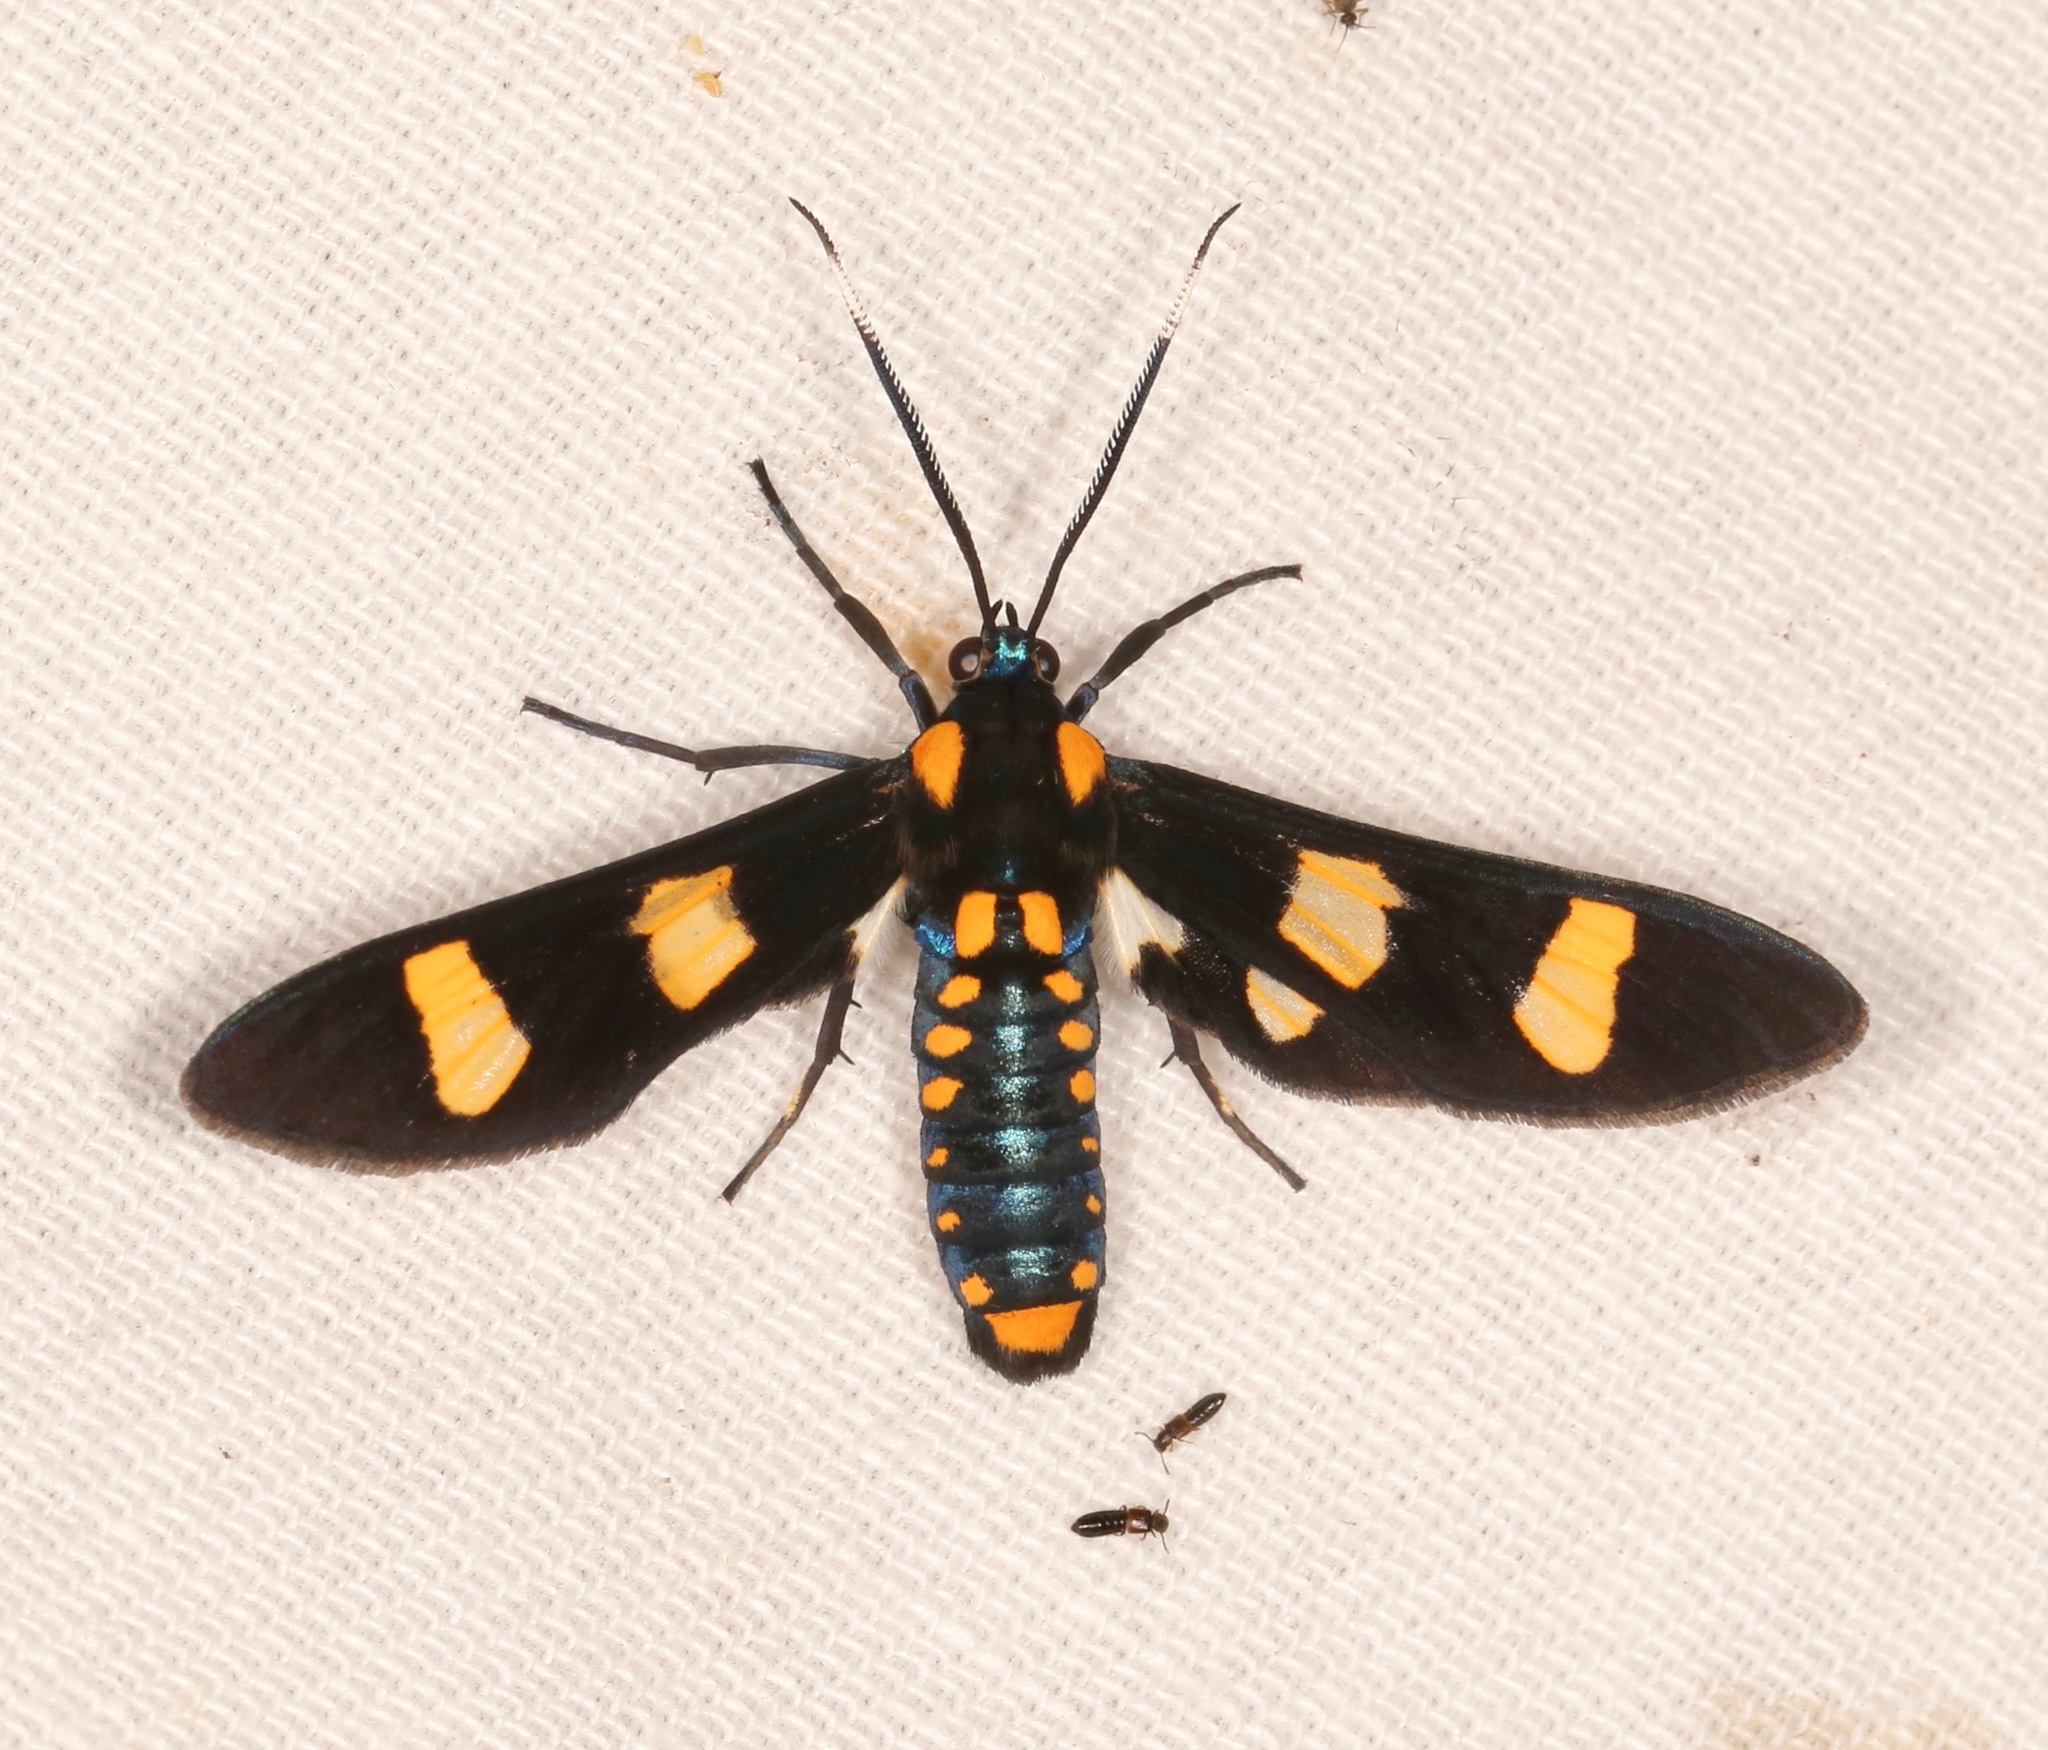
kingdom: Animalia
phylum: Arthropoda
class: Insecta
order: Lepidoptera
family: Erebidae
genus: Phoenicoprocta
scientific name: Phoenicoprocta hampsonii
